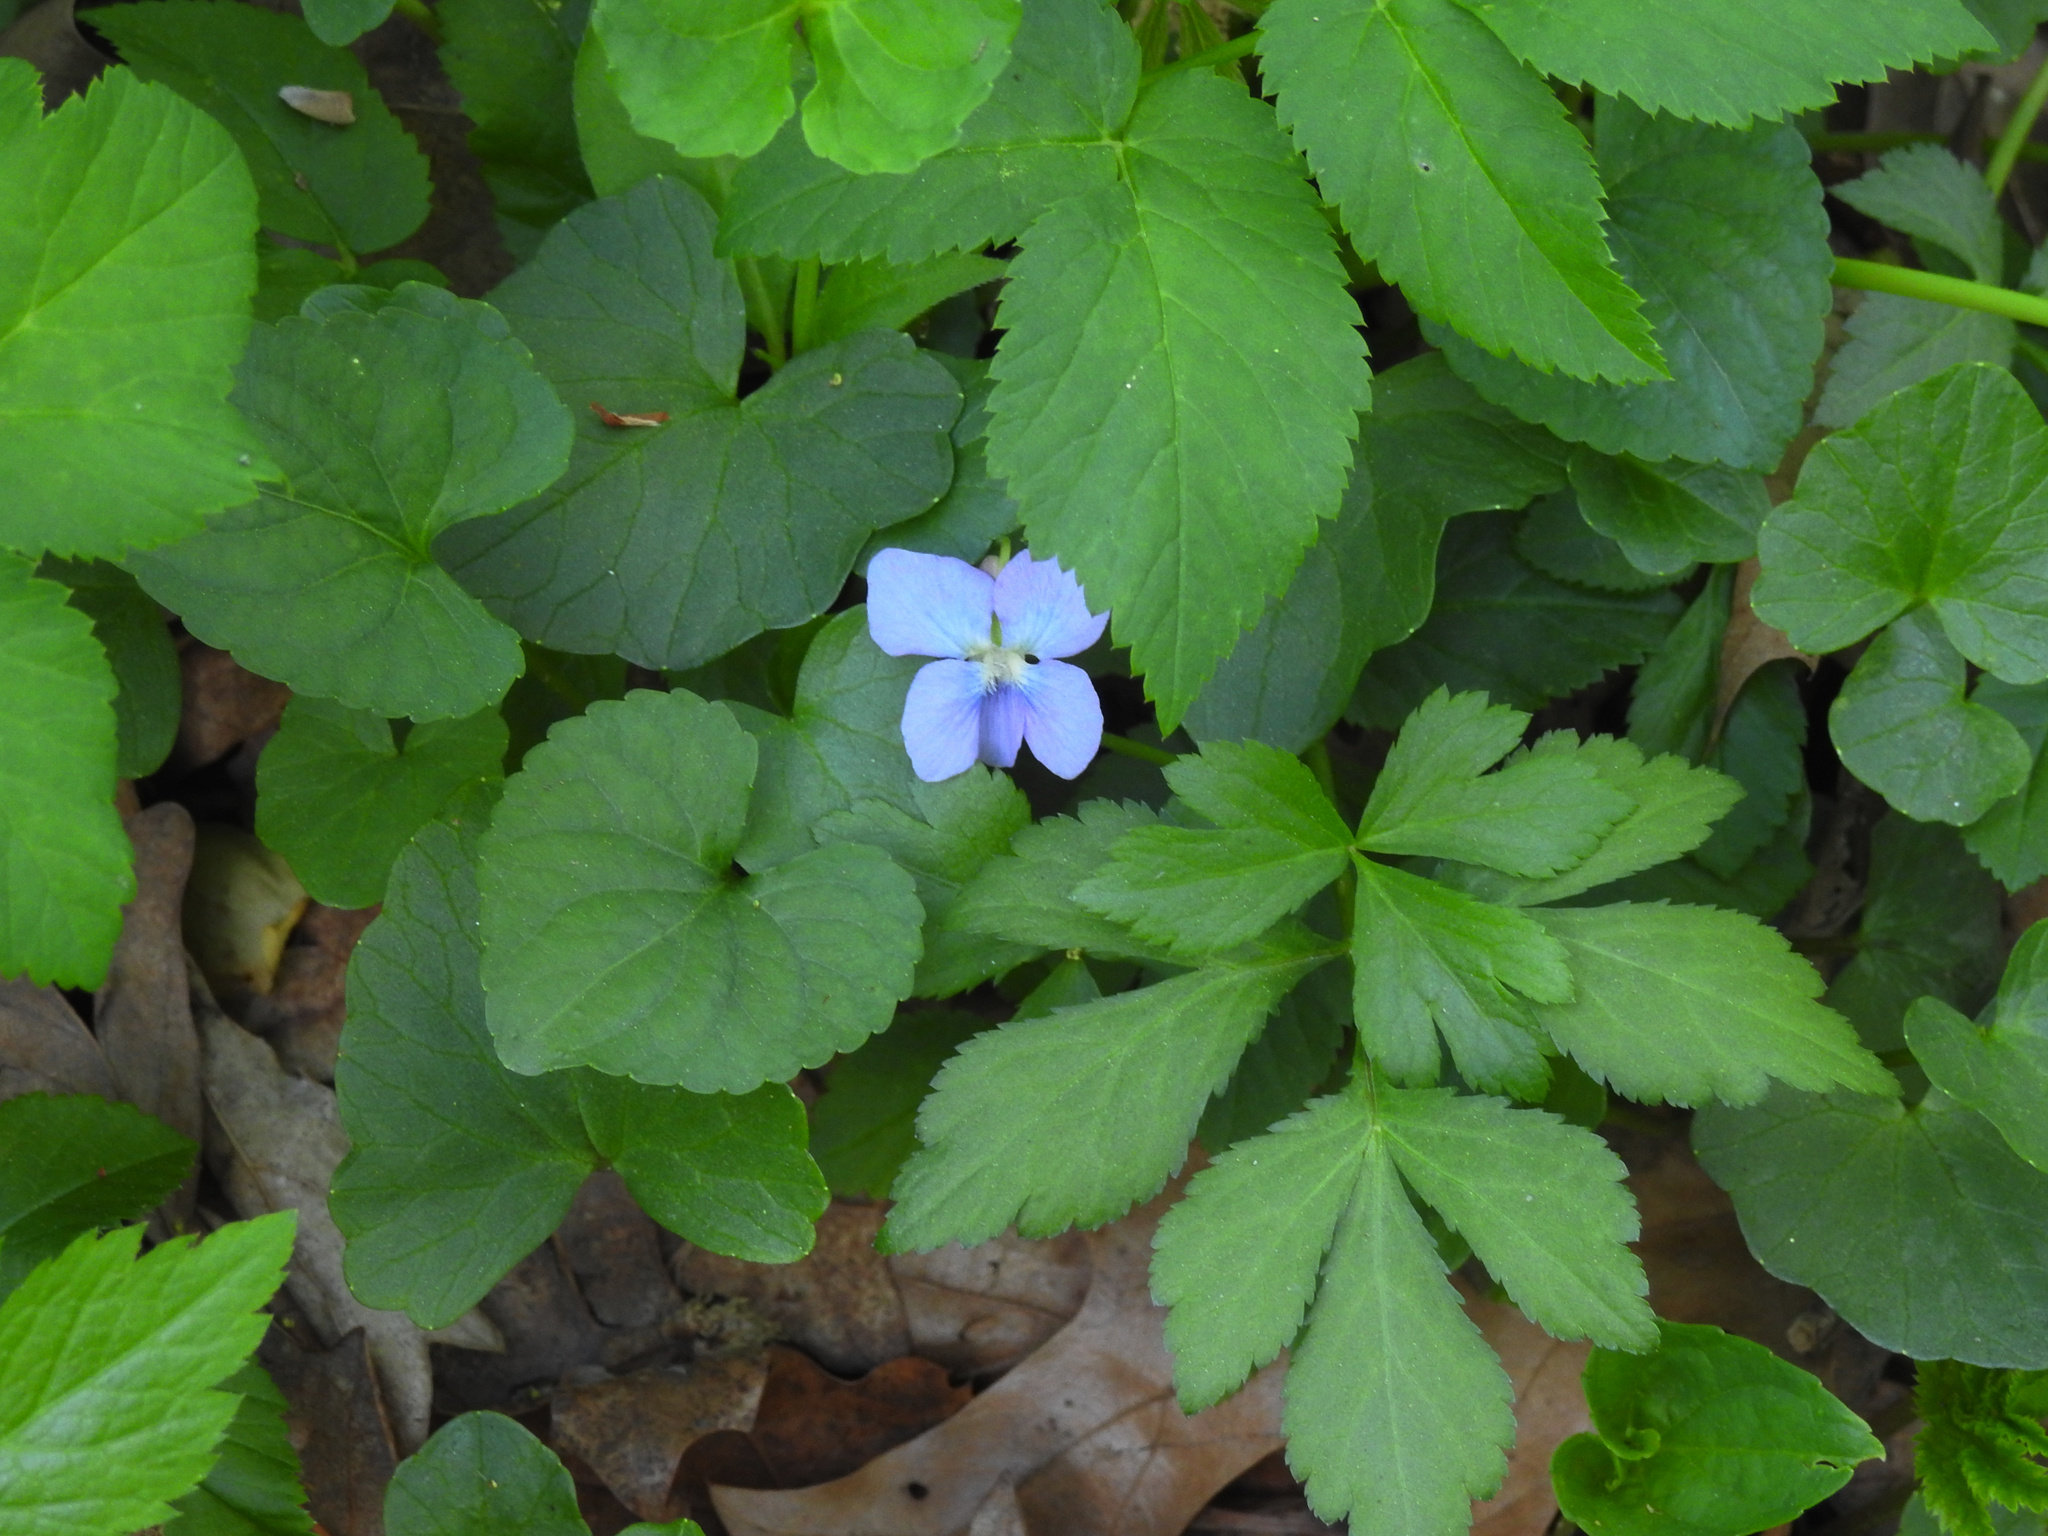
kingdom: Plantae
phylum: Tracheophyta
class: Magnoliopsida
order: Malpighiales
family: Violaceae
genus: Viola
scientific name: Viola sororia
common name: Dooryard violet
